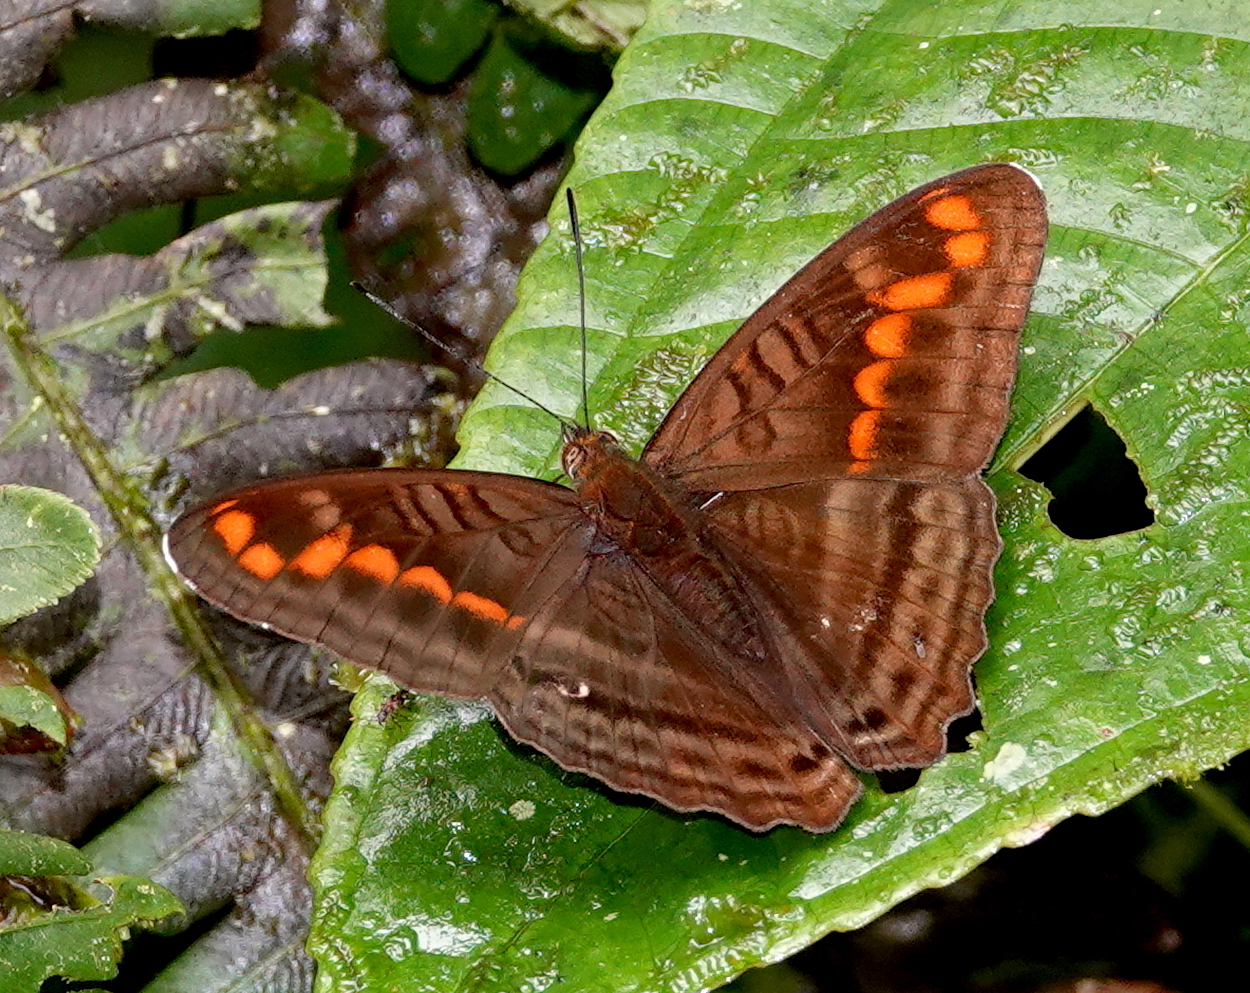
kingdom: Animalia
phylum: Arthropoda
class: Insecta
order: Lepidoptera
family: Nymphalidae
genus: Limenitis
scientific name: Limenitis levona
